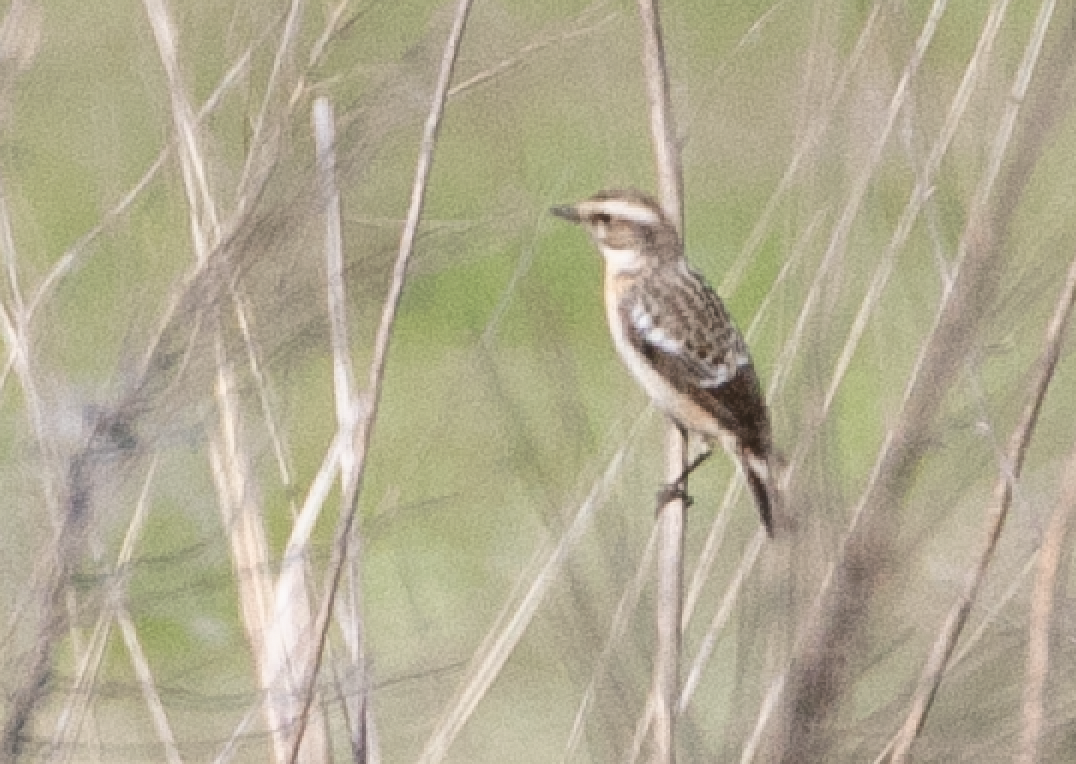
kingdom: Animalia
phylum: Chordata
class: Aves
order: Passeriformes
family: Muscicapidae
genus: Saxicola
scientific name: Saxicola rubetra
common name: Whinchat
